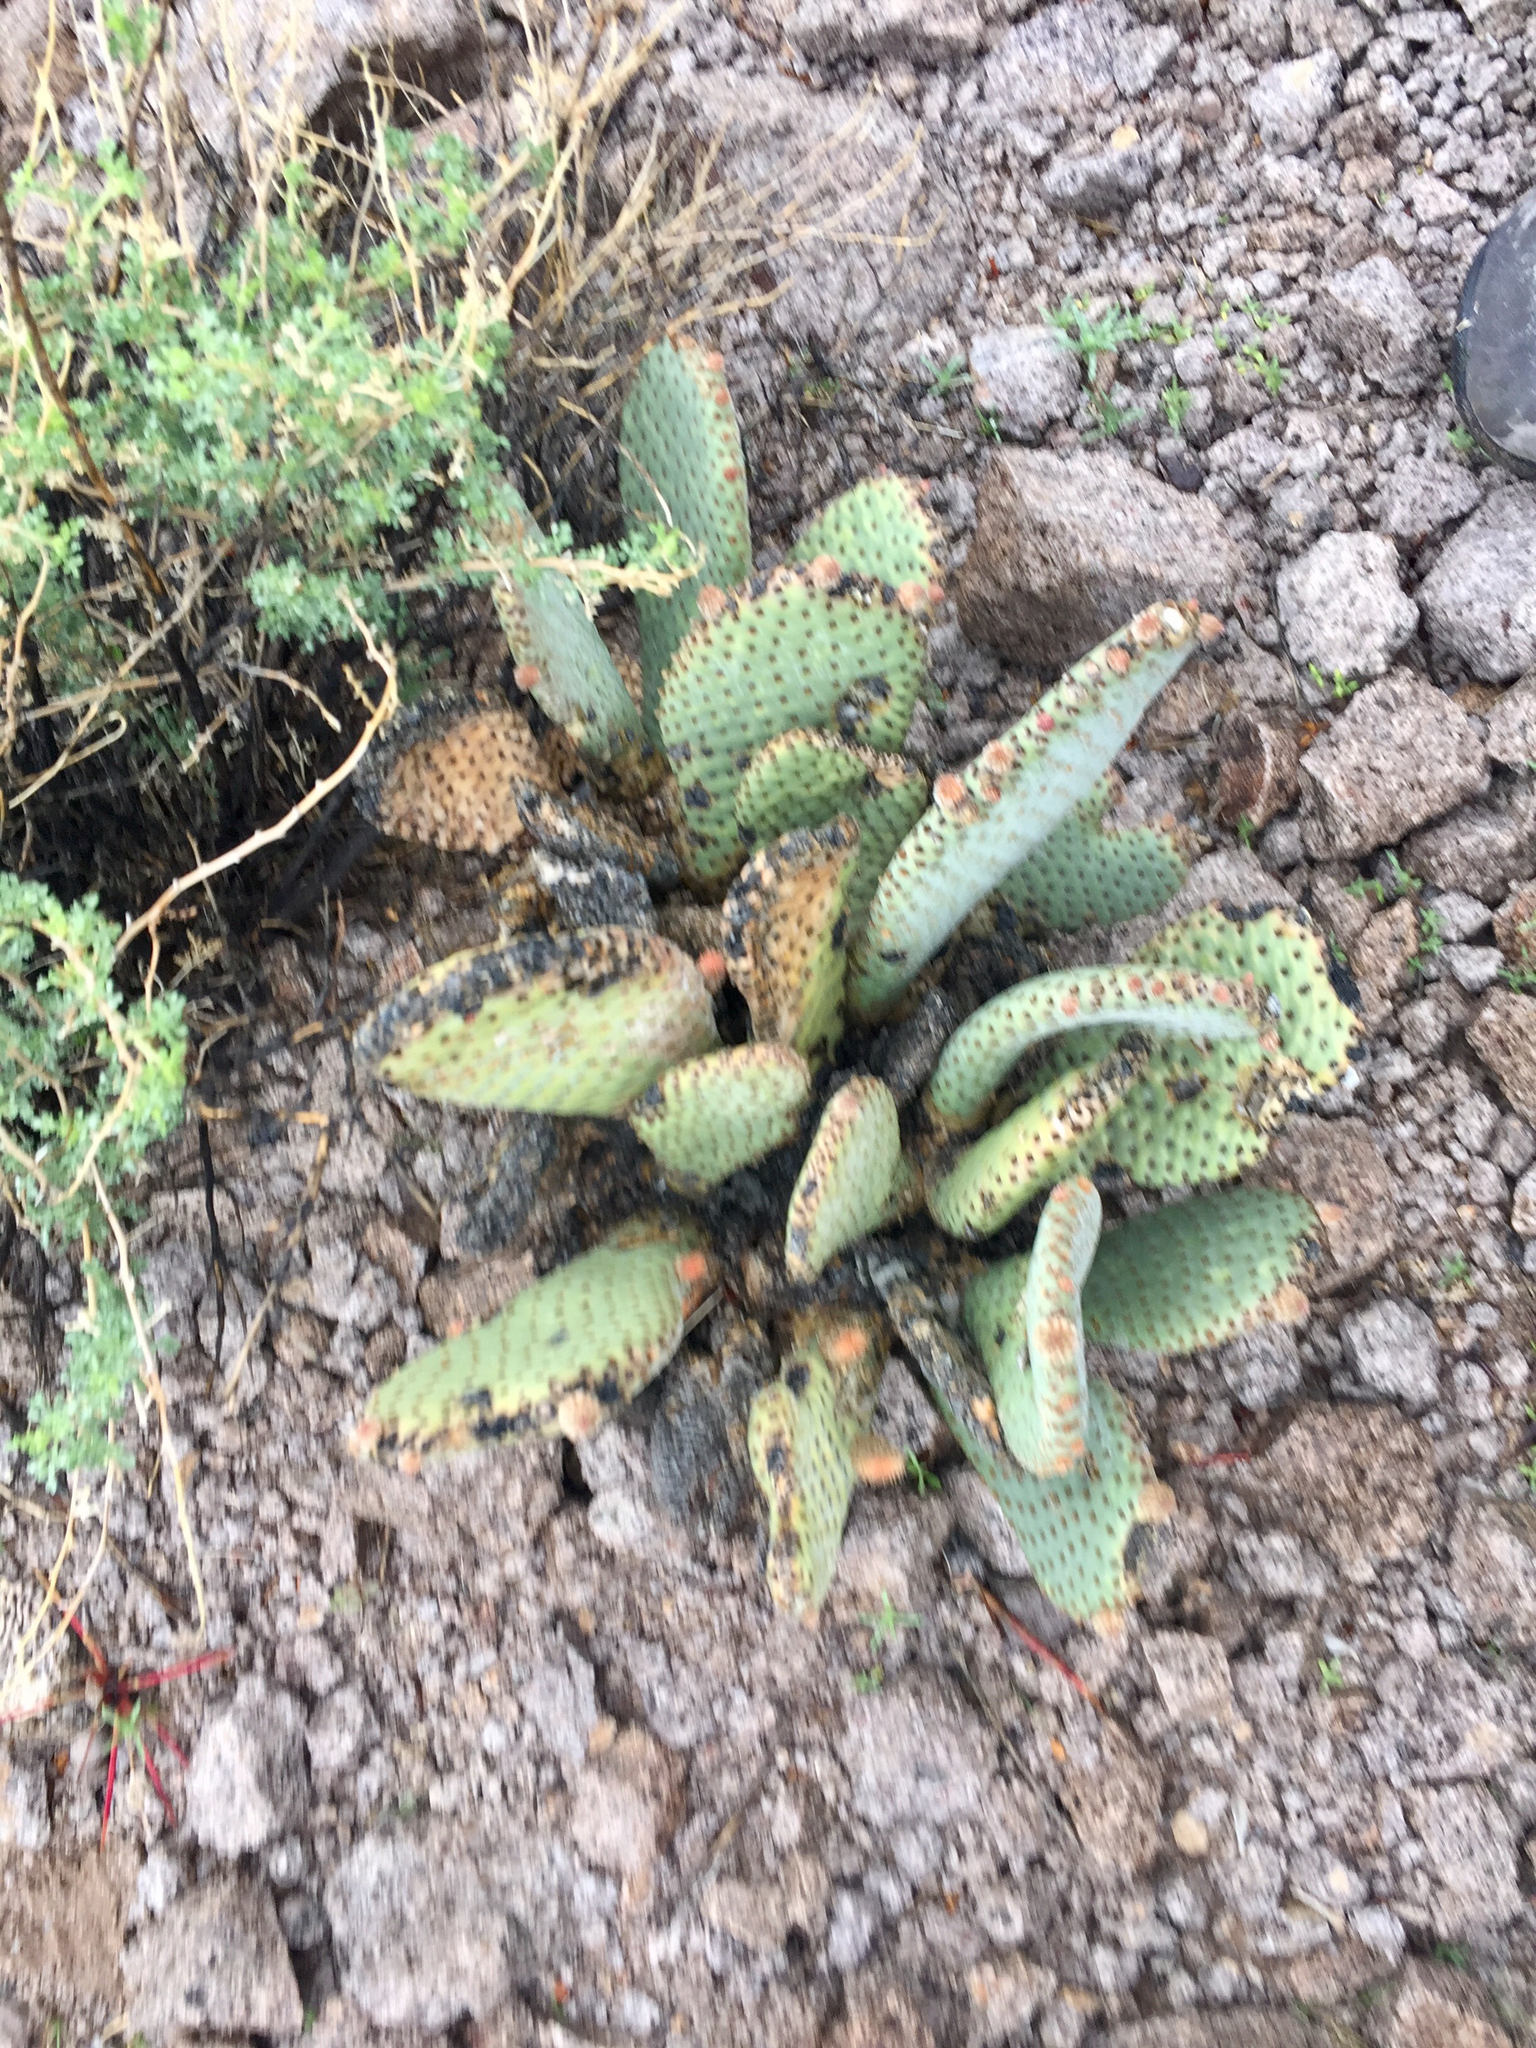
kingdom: Plantae
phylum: Tracheophyta
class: Magnoliopsida
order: Caryophyllales
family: Cactaceae
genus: Opuntia
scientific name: Opuntia basilaris
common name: Beavertail prickly-pear
